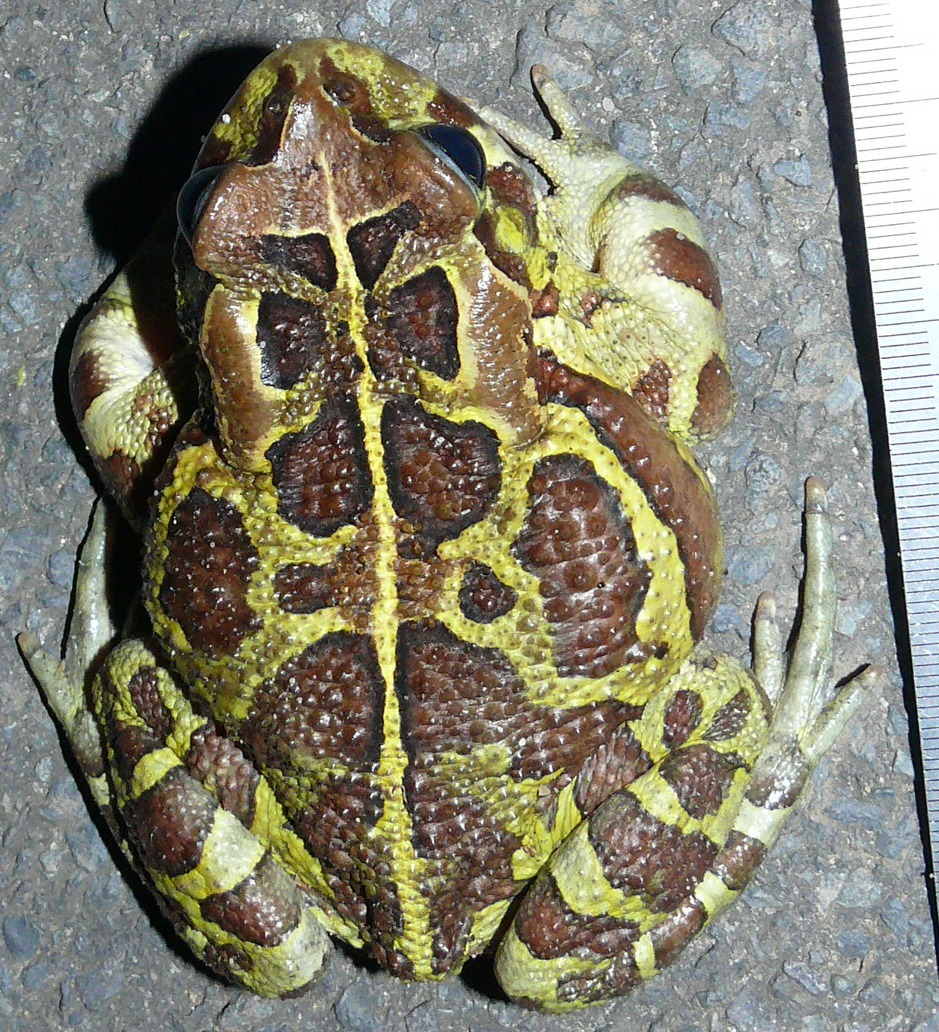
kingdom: Animalia
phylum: Chordata
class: Amphibia
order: Anura
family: Bufonidae
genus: Sclerophrys
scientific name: Sclerophrys pantherina
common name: Panther toad
